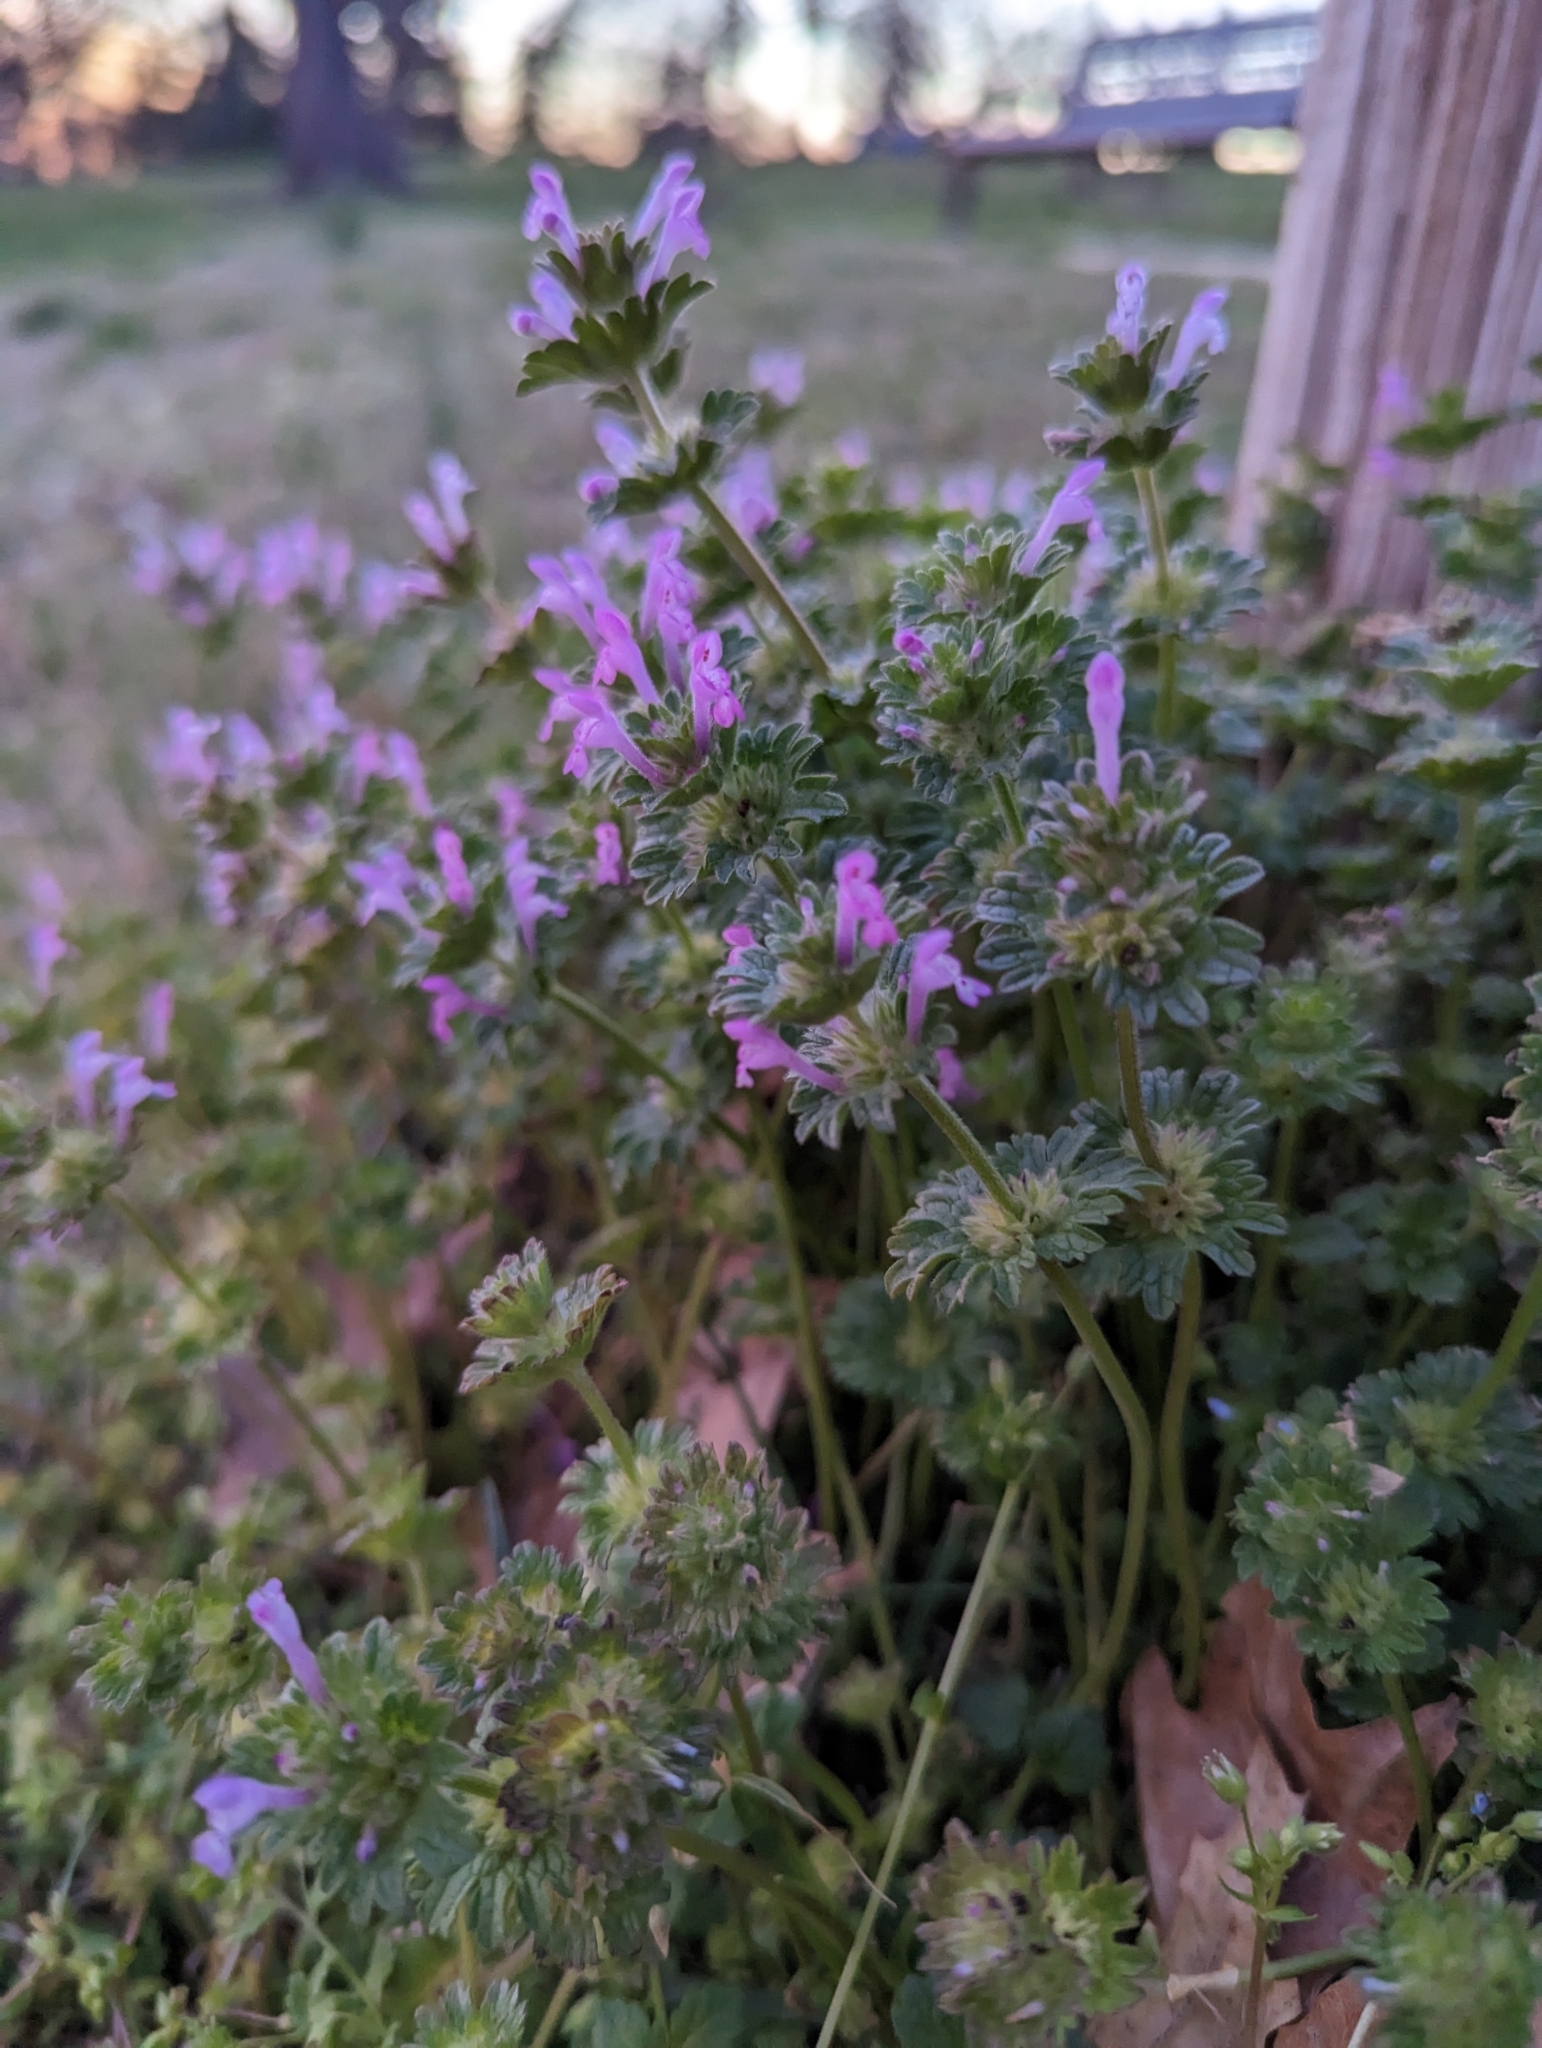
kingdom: Plantae
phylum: Tracheophyta
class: Magnoliopsida
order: Lamiales
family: Lamiaceae
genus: Lamium
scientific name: Lamium amplexicaule
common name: Henbit dead-nettle
